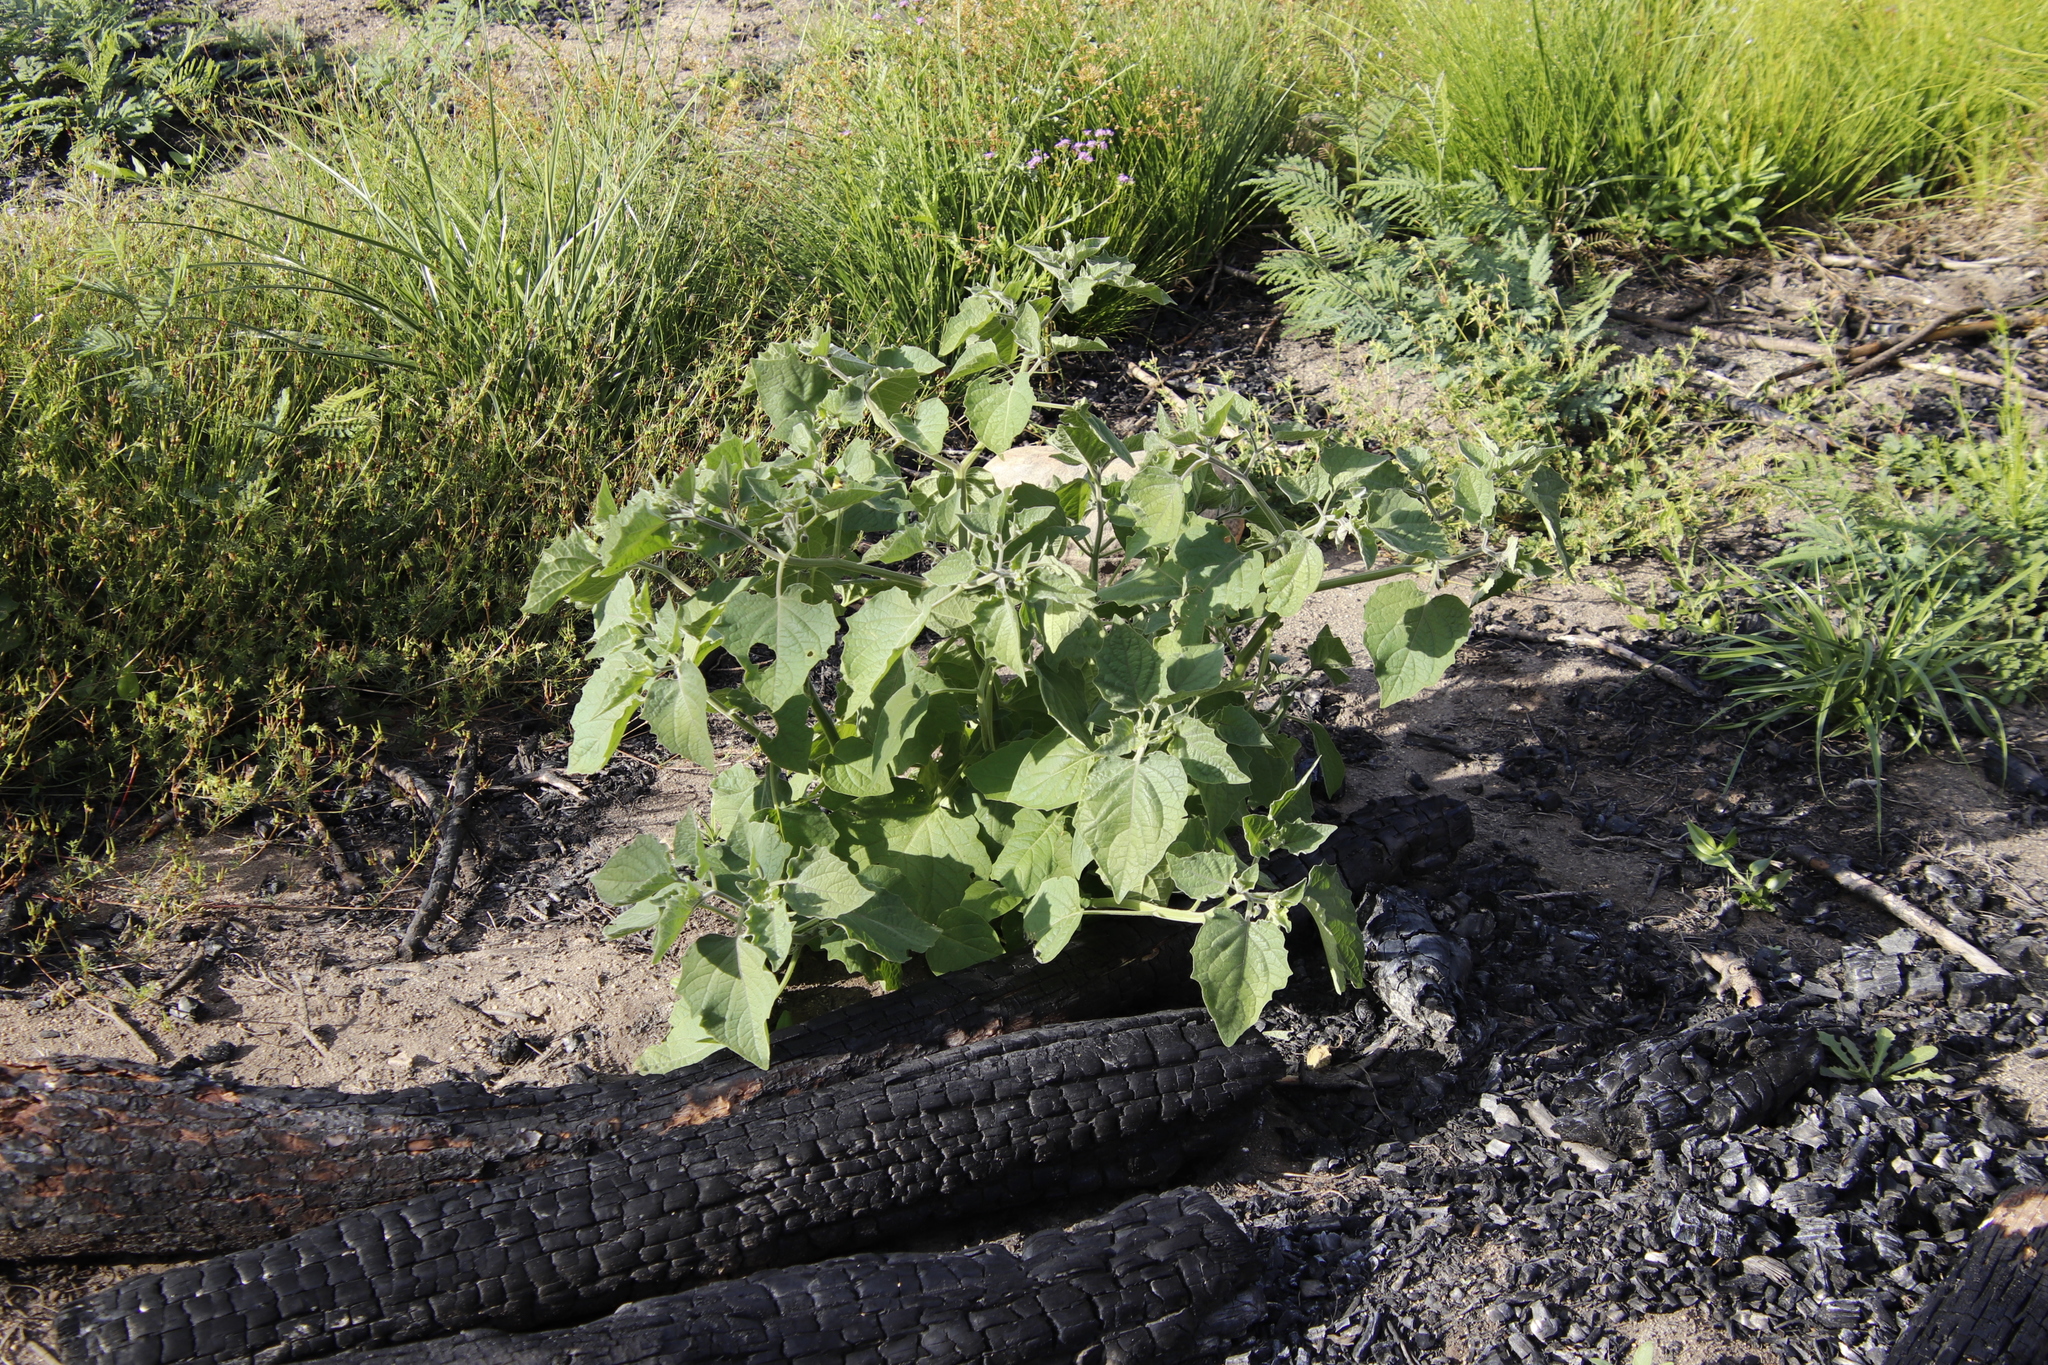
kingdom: Plantae
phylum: Tracheophyta
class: Magnoliopsida
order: Solanales
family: Solanaceae
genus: Physalis
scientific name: Physalis peruviana
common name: Cape-gooseberry
